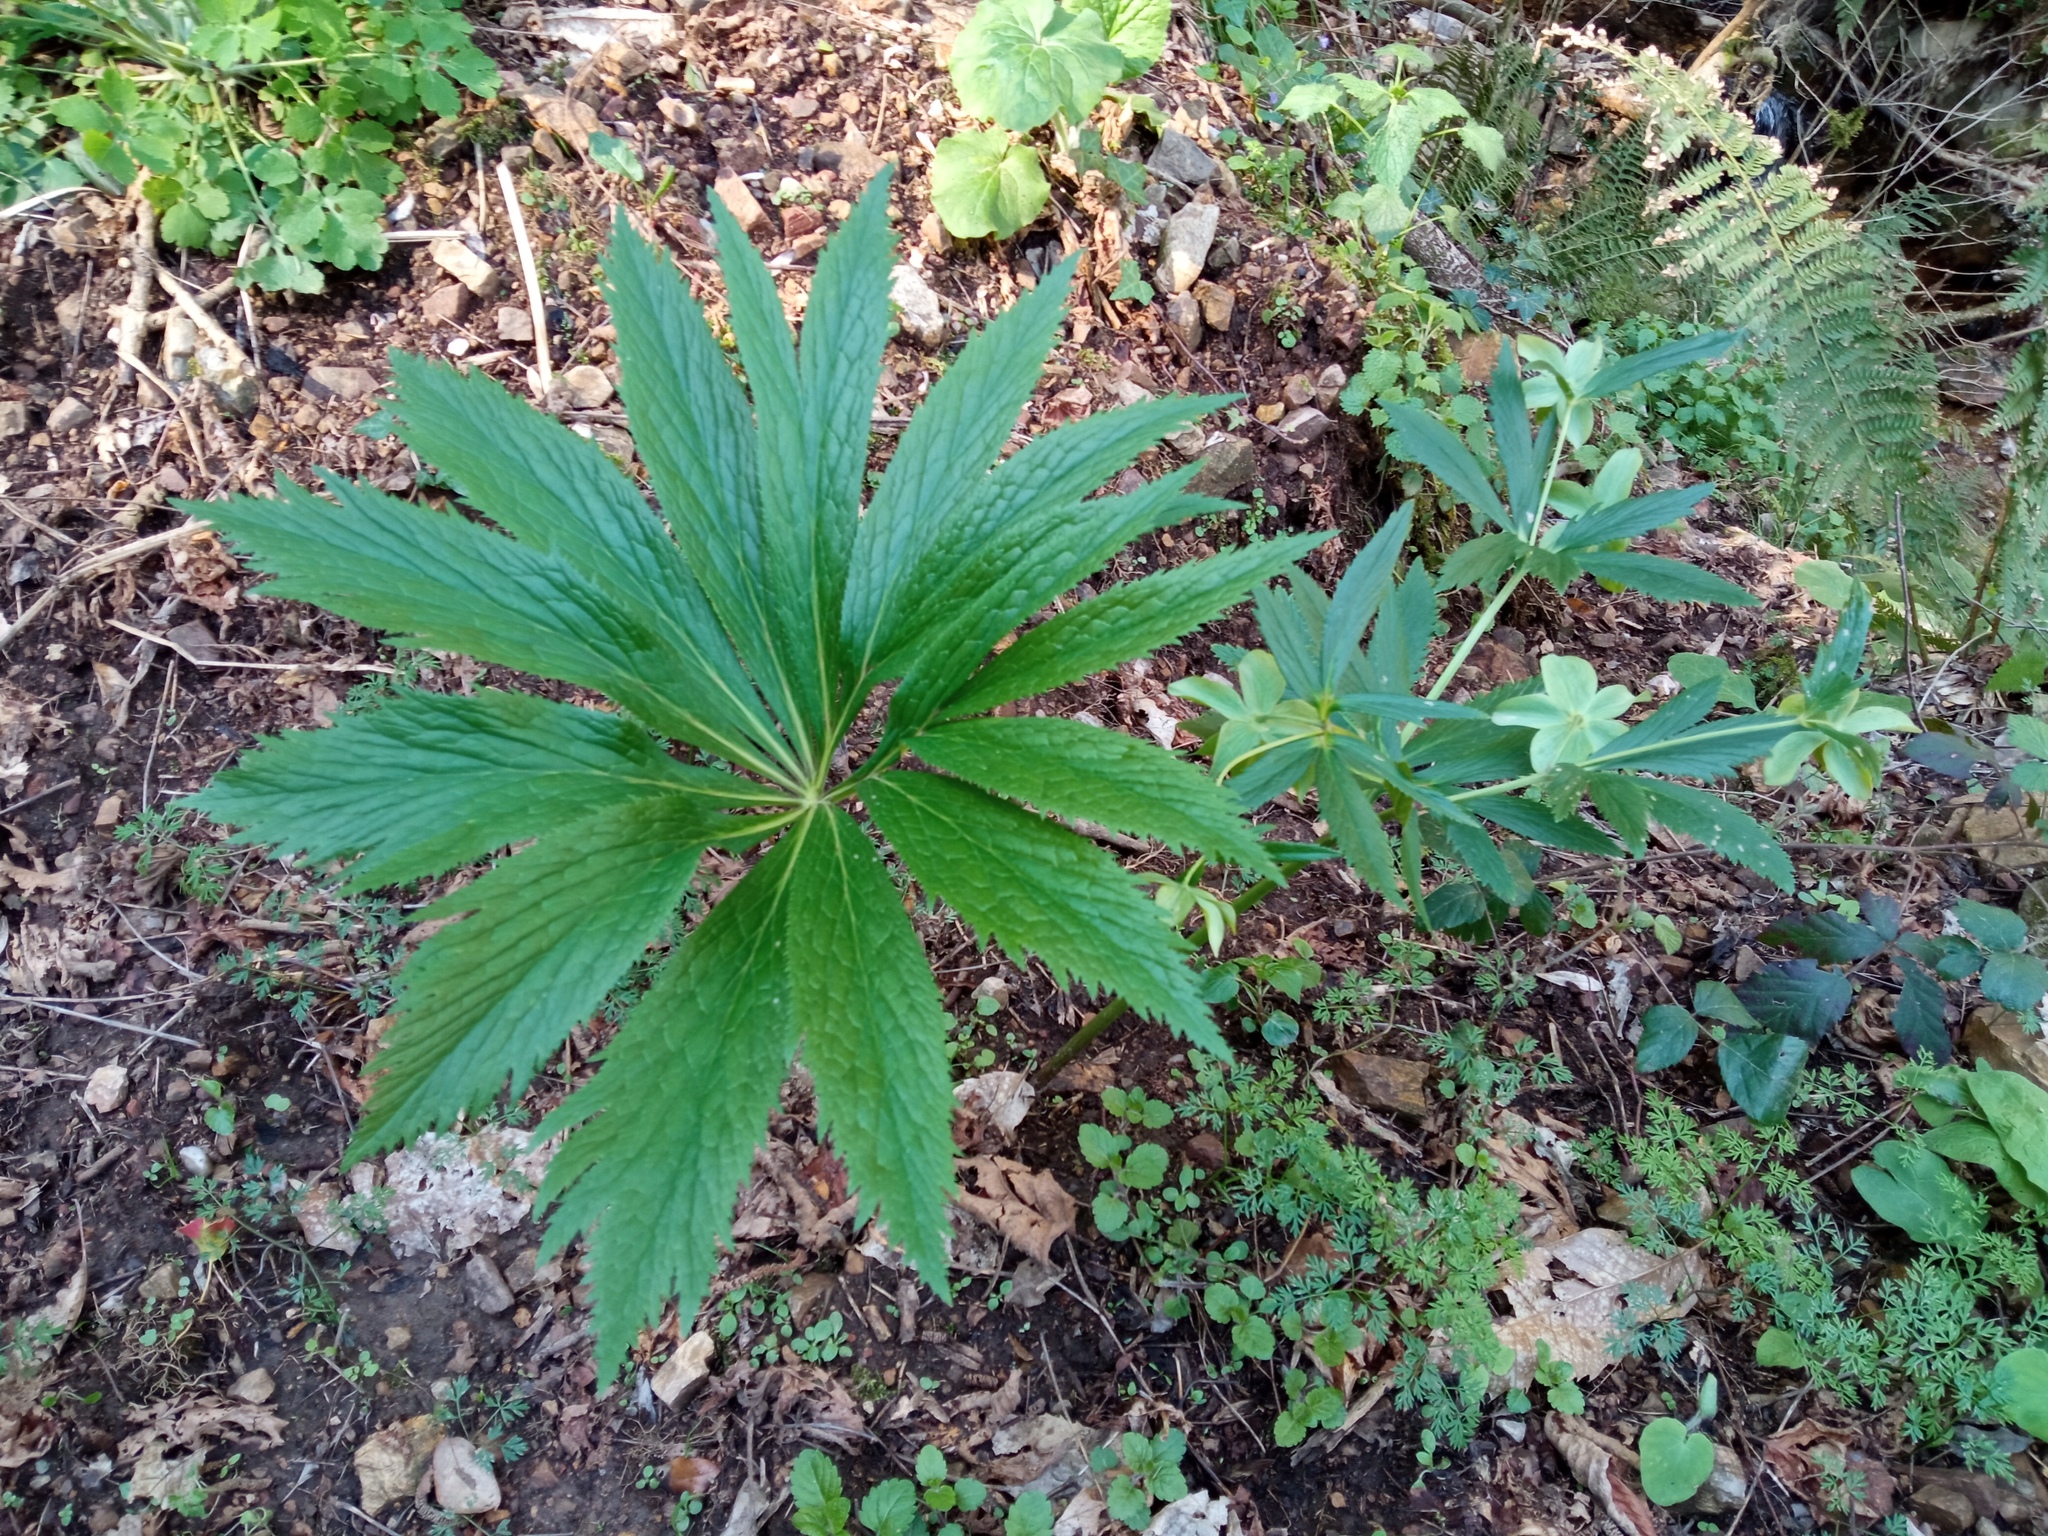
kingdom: Plantae
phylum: Tracheophyta
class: Magnoliopsida
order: Ranunculales
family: Ranunculaceae
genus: Helleborus
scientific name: Helleborus viridis
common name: Green hellebore
